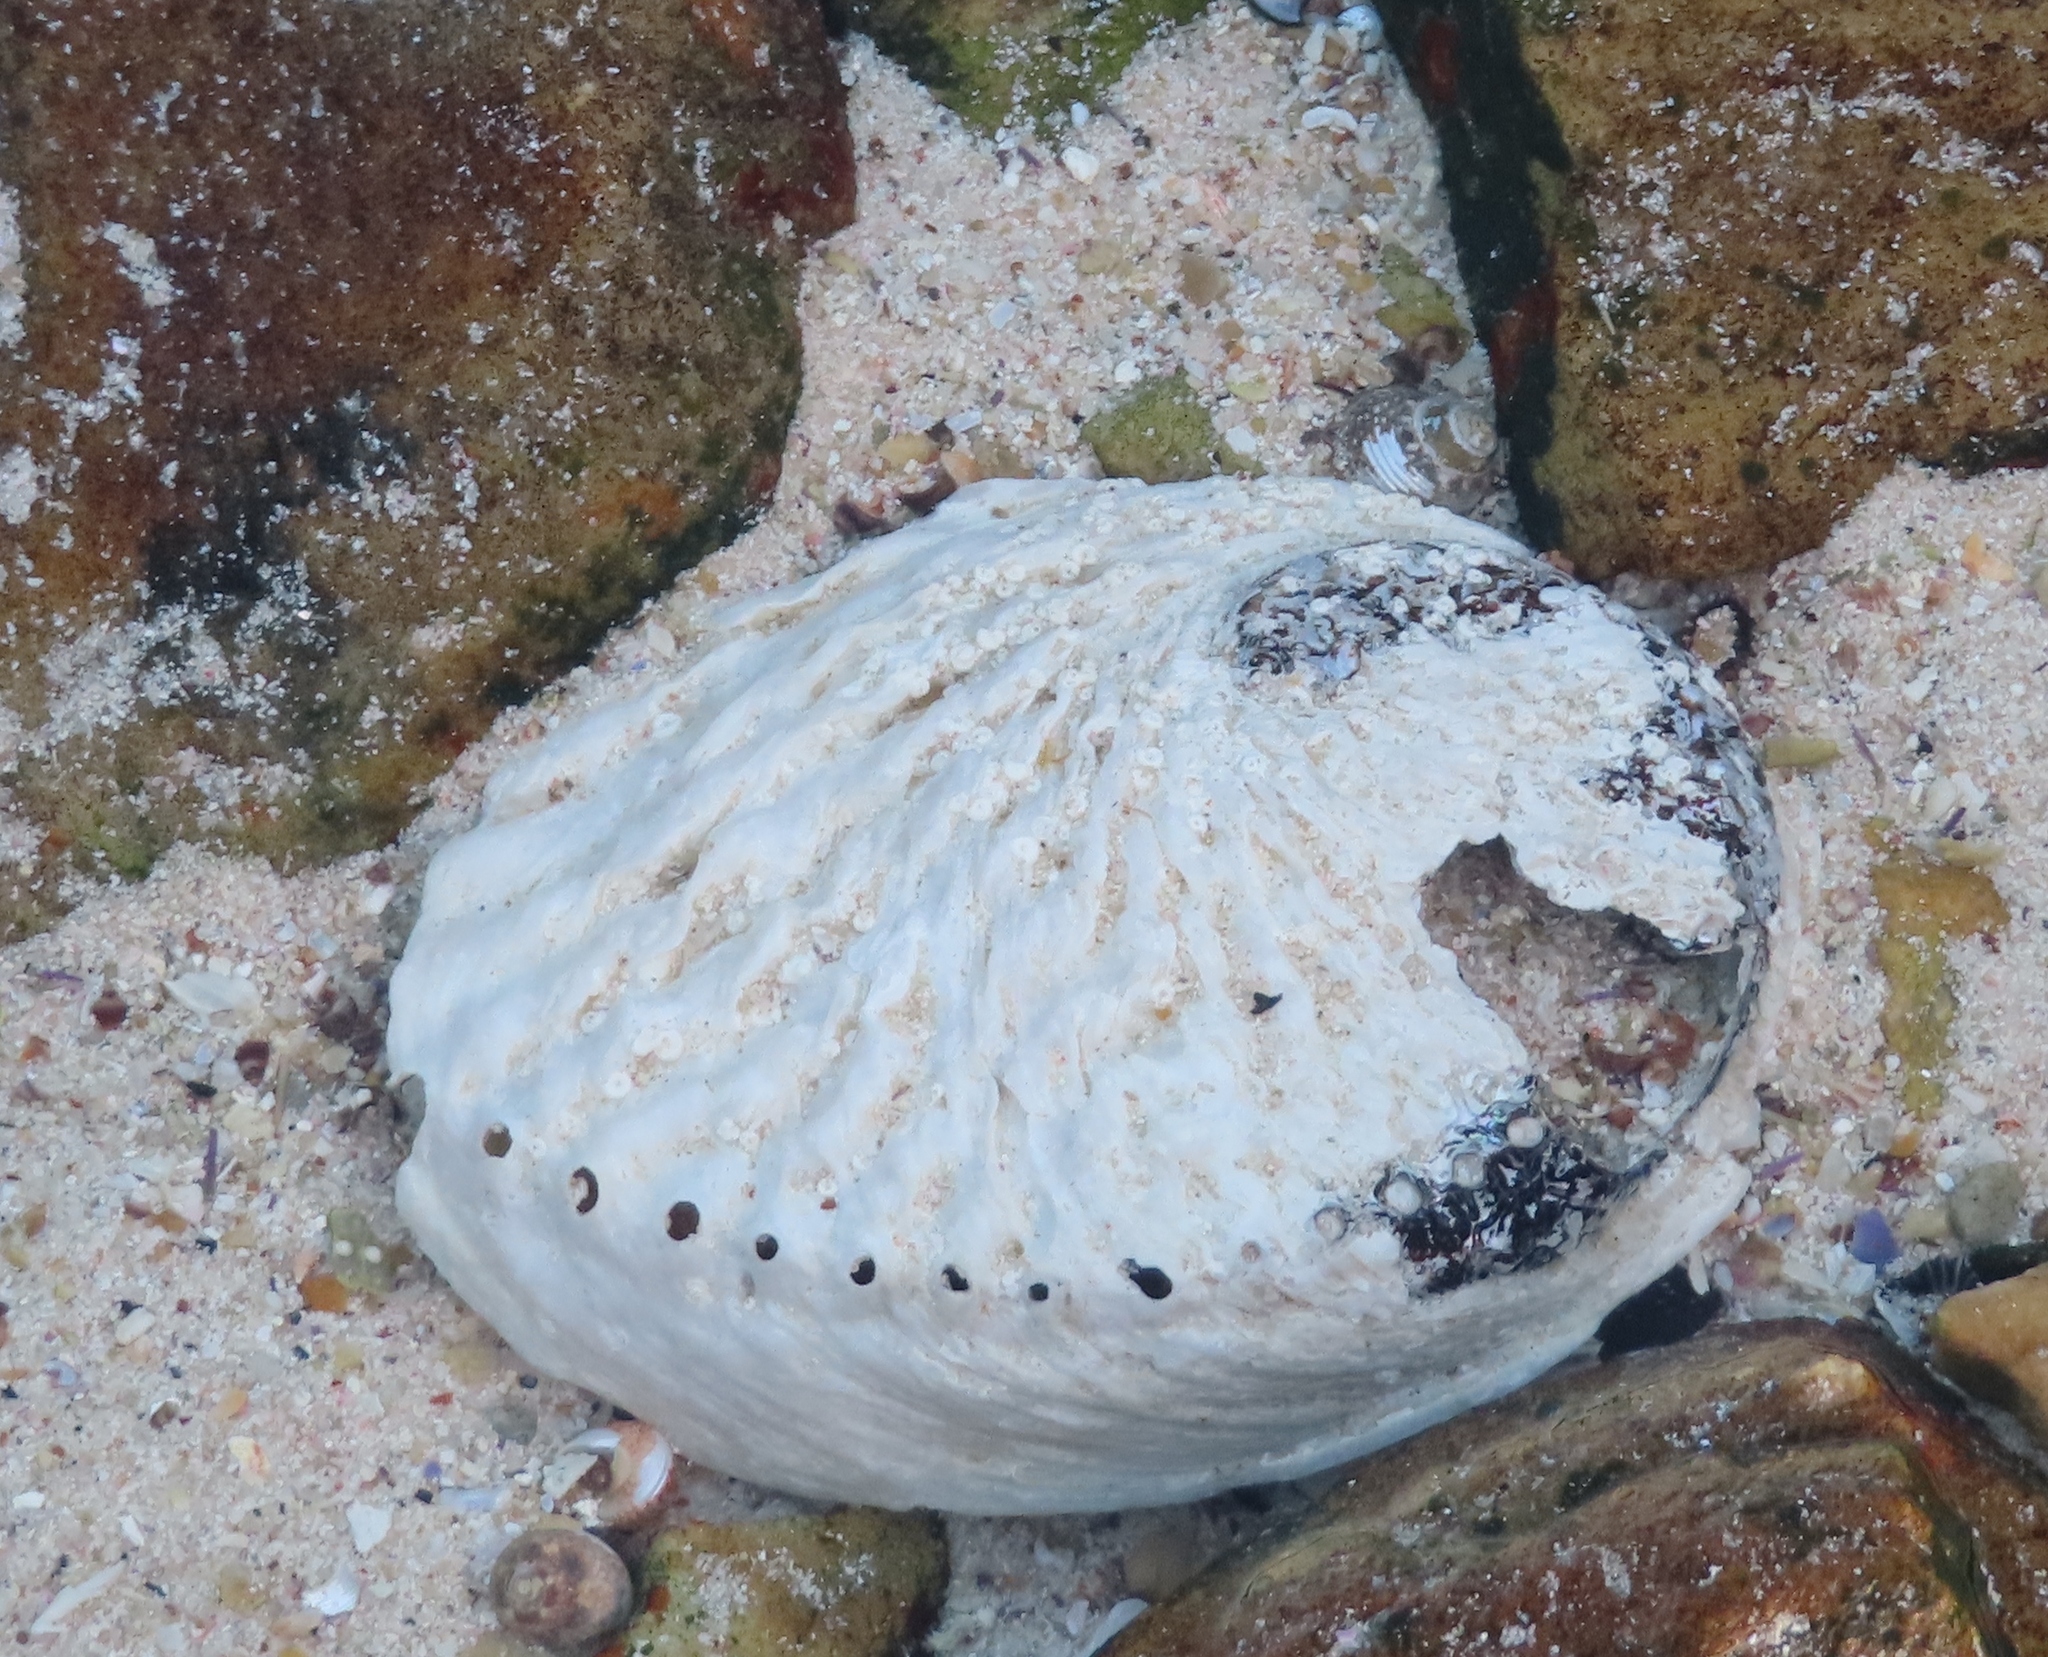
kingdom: Animalia
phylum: Mollusca
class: Gastropoda
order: Lepetellida
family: Haliotidae
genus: Haliotis
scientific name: Haliotis midae
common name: Perlemoen
